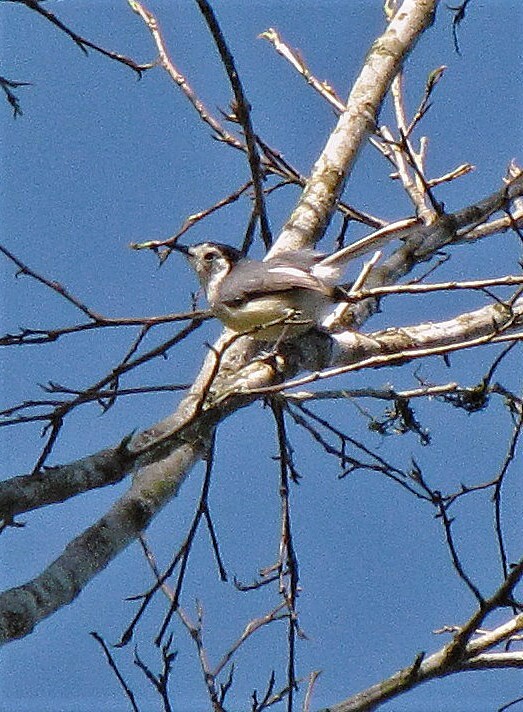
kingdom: Animalia
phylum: Chordata
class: Aves
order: Passeriformes
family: Polioptilidae
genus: Polioptila
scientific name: Polioptila lactea
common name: Creamy-bellied gnatcatcher
